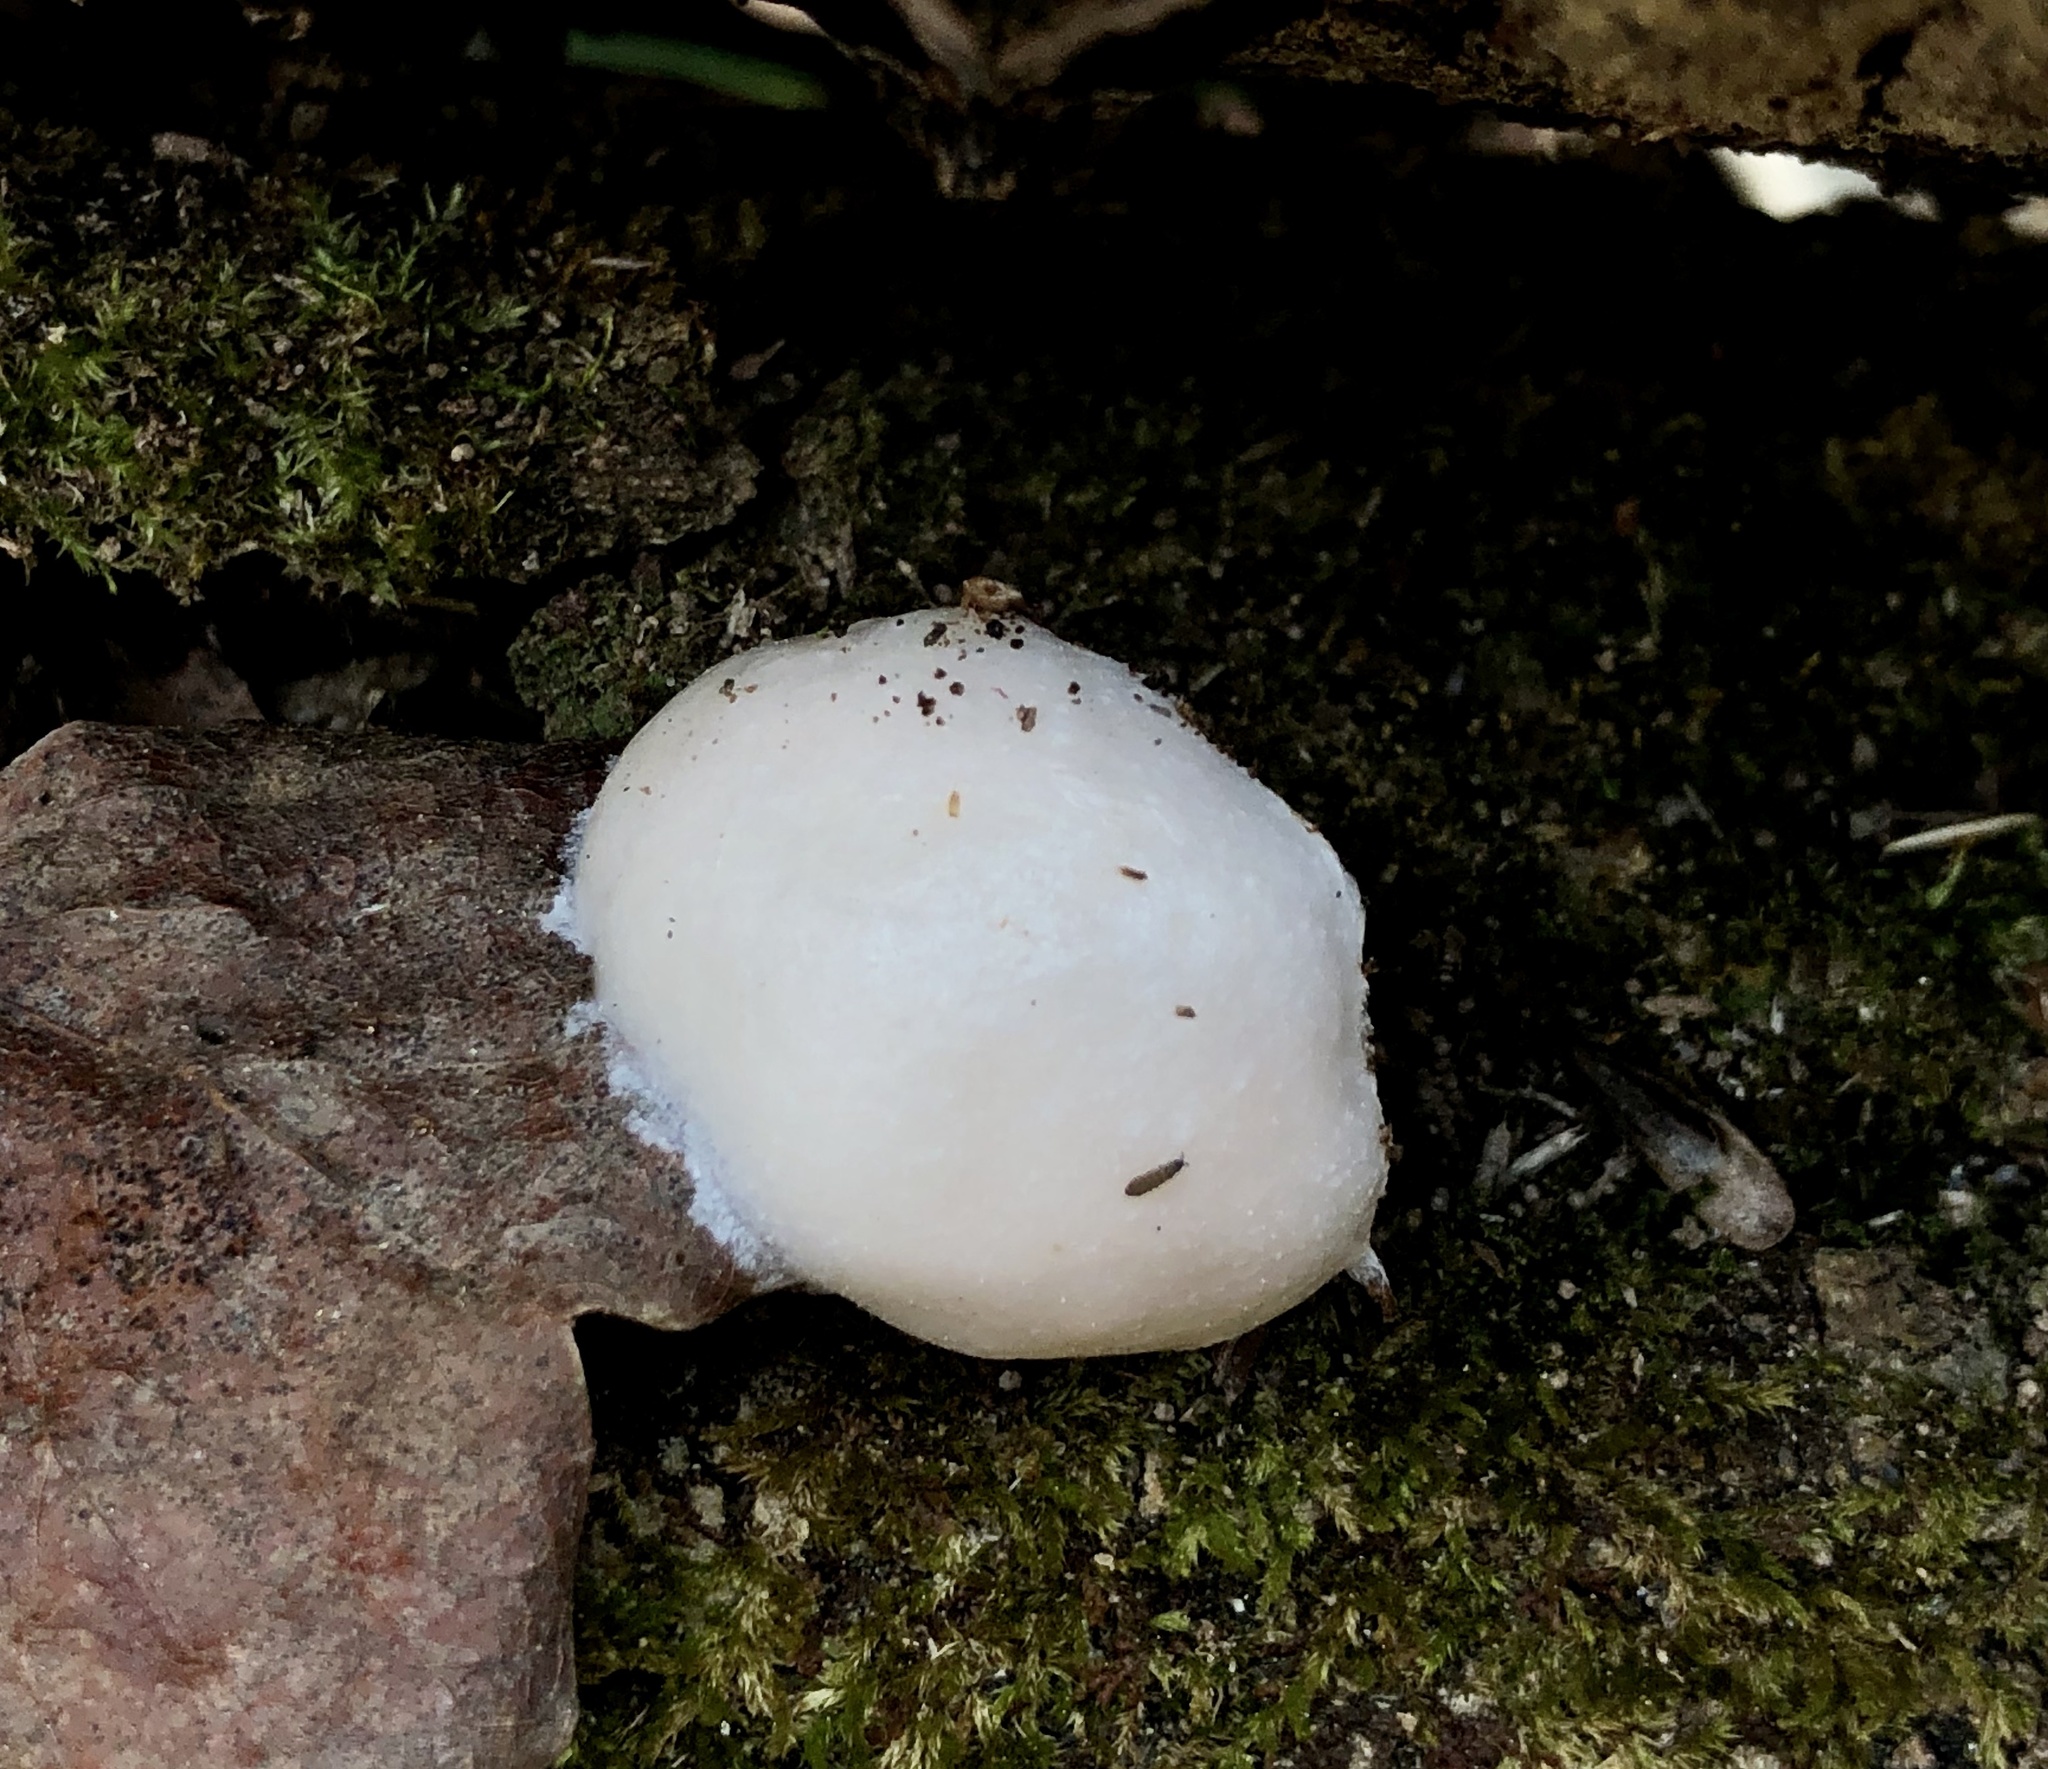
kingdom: Protozoa
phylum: Mycetozoa
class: Myxomycetes
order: Cribrariales
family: Tubiferaceae
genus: Reticularia
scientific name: Reticularia lycoperdon
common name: False puffball
